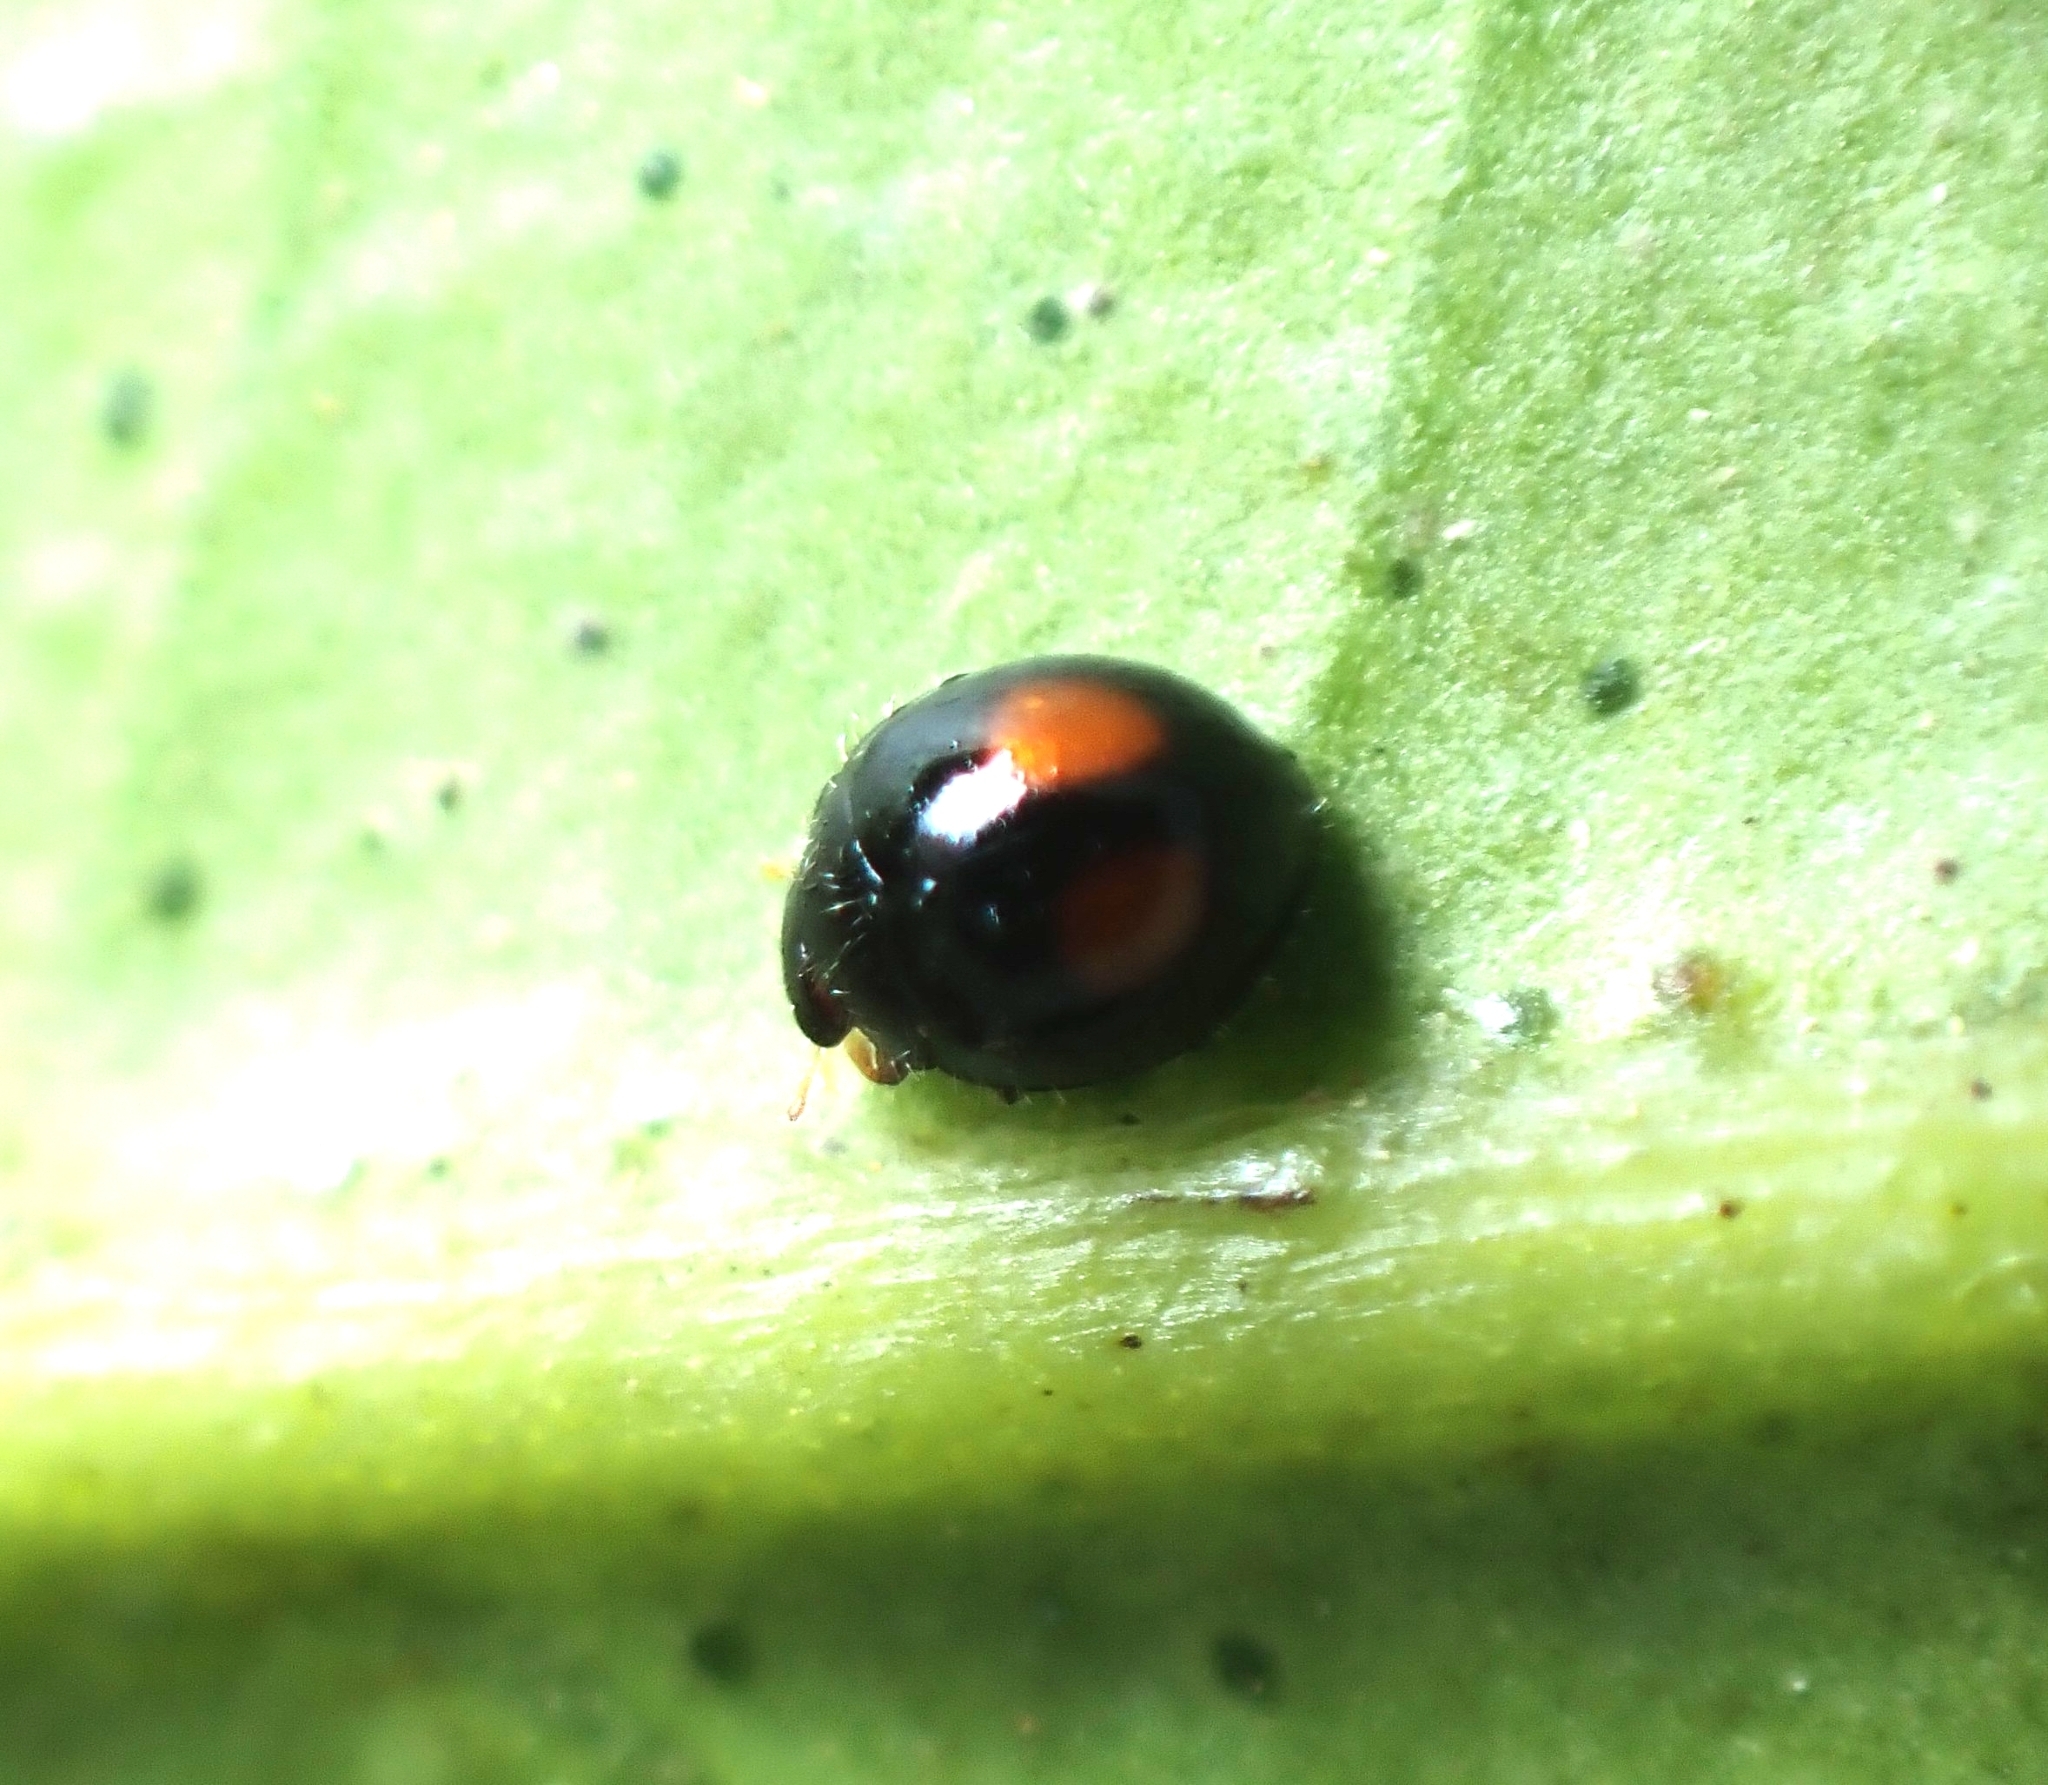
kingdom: Animalia
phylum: Arthropoda
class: Insecta
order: Coleoptera
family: Coccinellidae
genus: Serangium
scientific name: Serangium maculigerum
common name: Lady beetle
